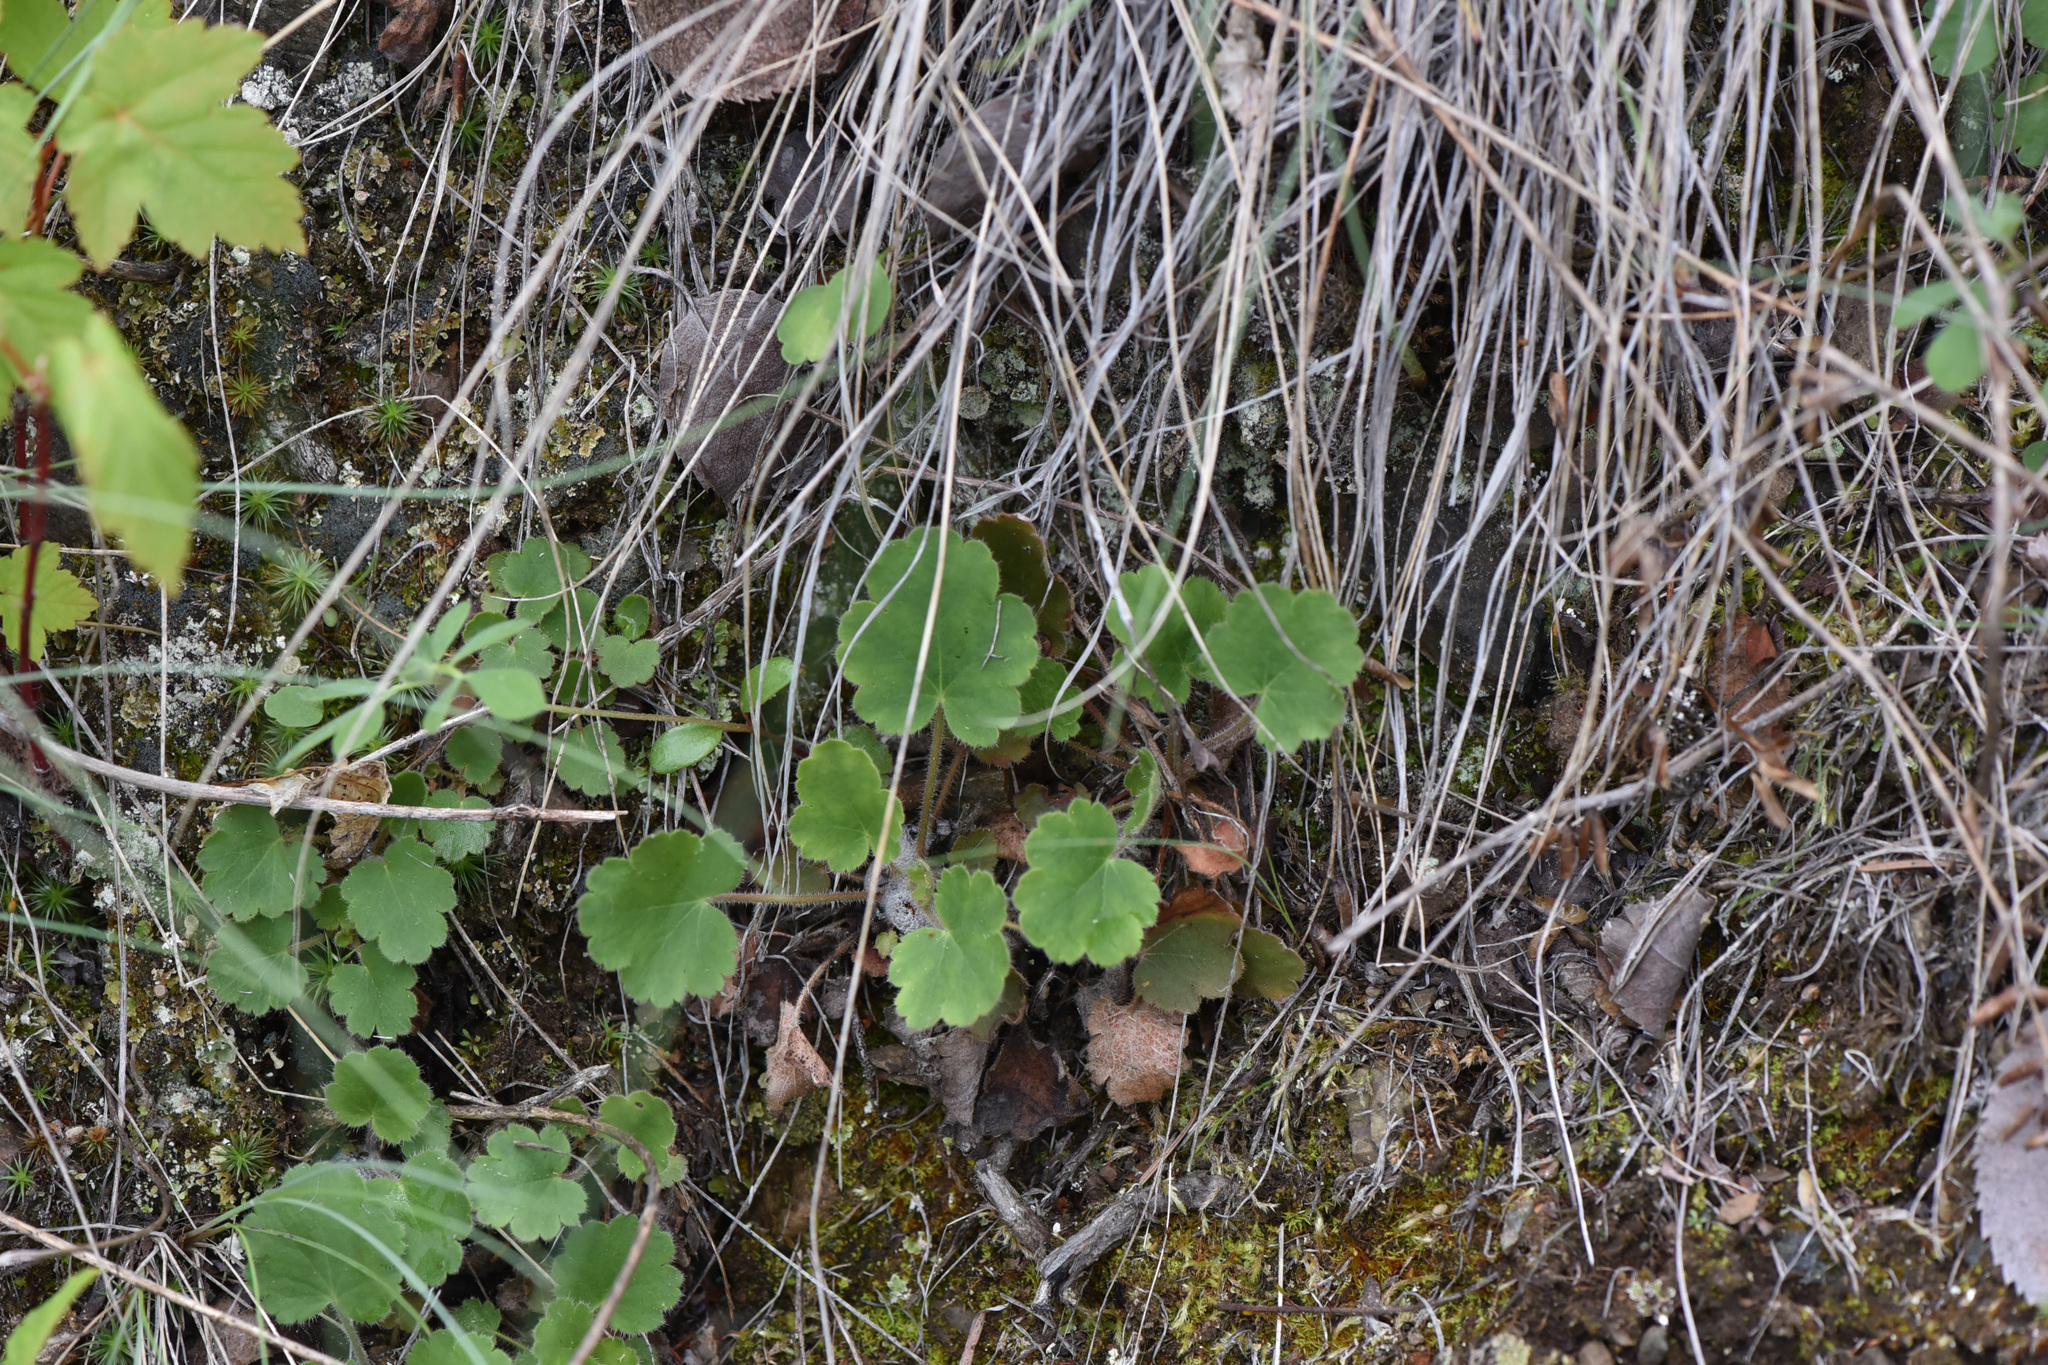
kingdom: Plantae
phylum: Tracheophyta
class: Magnoliopsida
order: Saxifragales
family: Saxifragaceae
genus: Heuchera
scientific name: Heuchera cylindrica
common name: Mat alumroot
